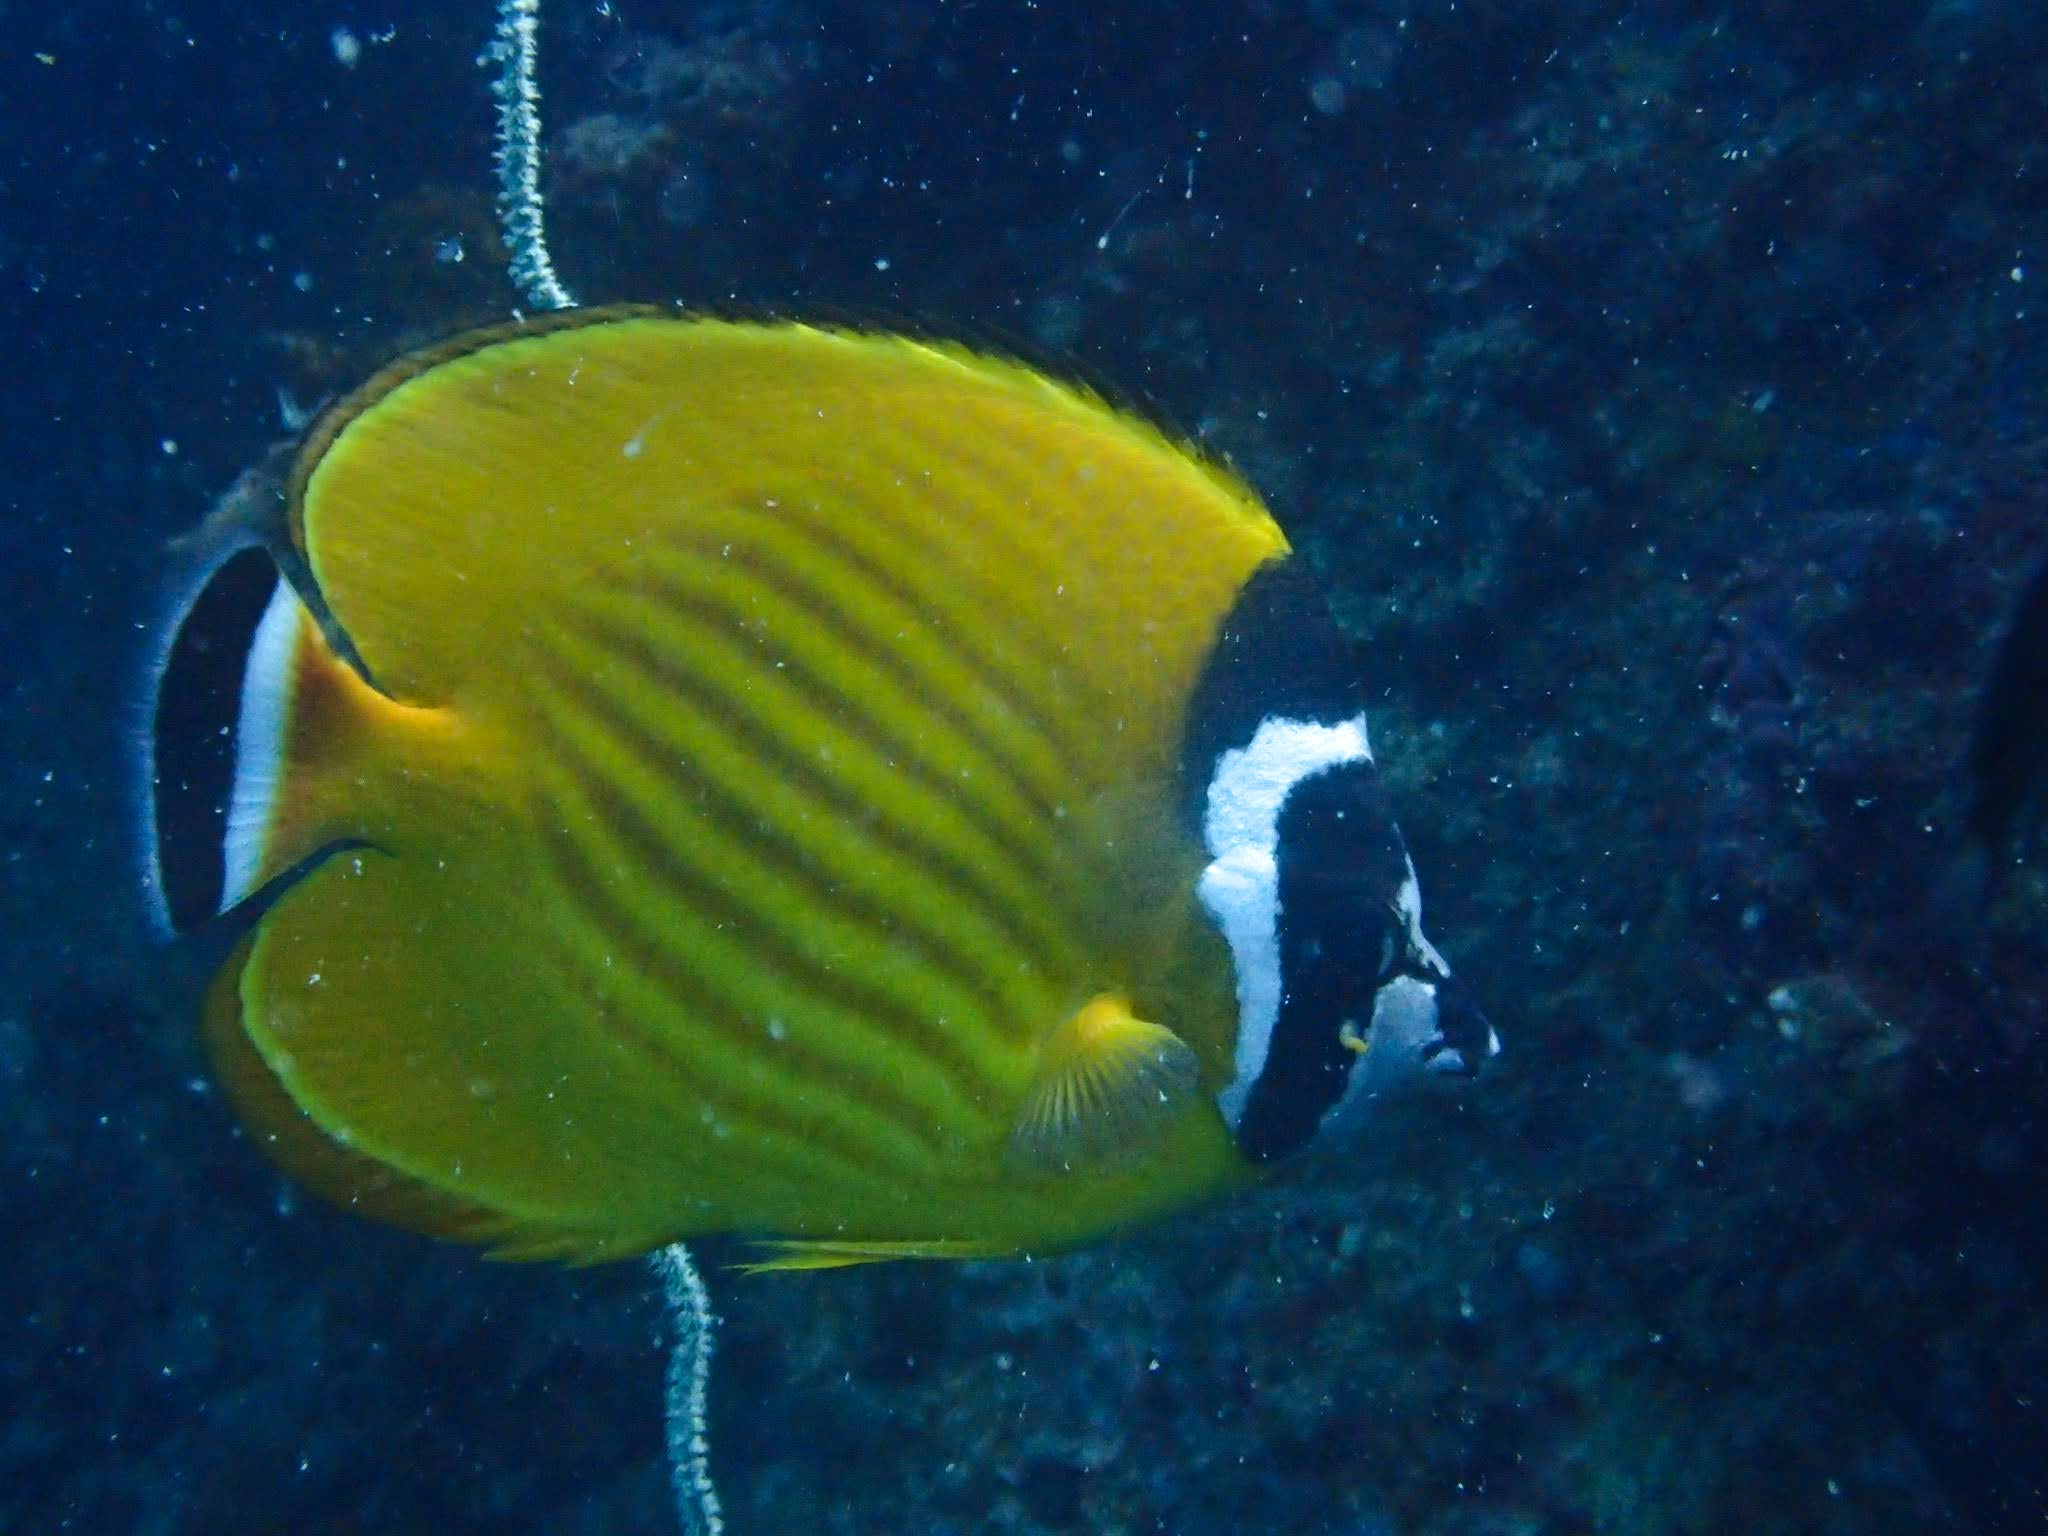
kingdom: Animalia
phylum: Chordata
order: Perciformes
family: Chaetodontidae
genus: Chaetodon
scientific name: Chaetodon wiebeli
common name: Butterflyfish
